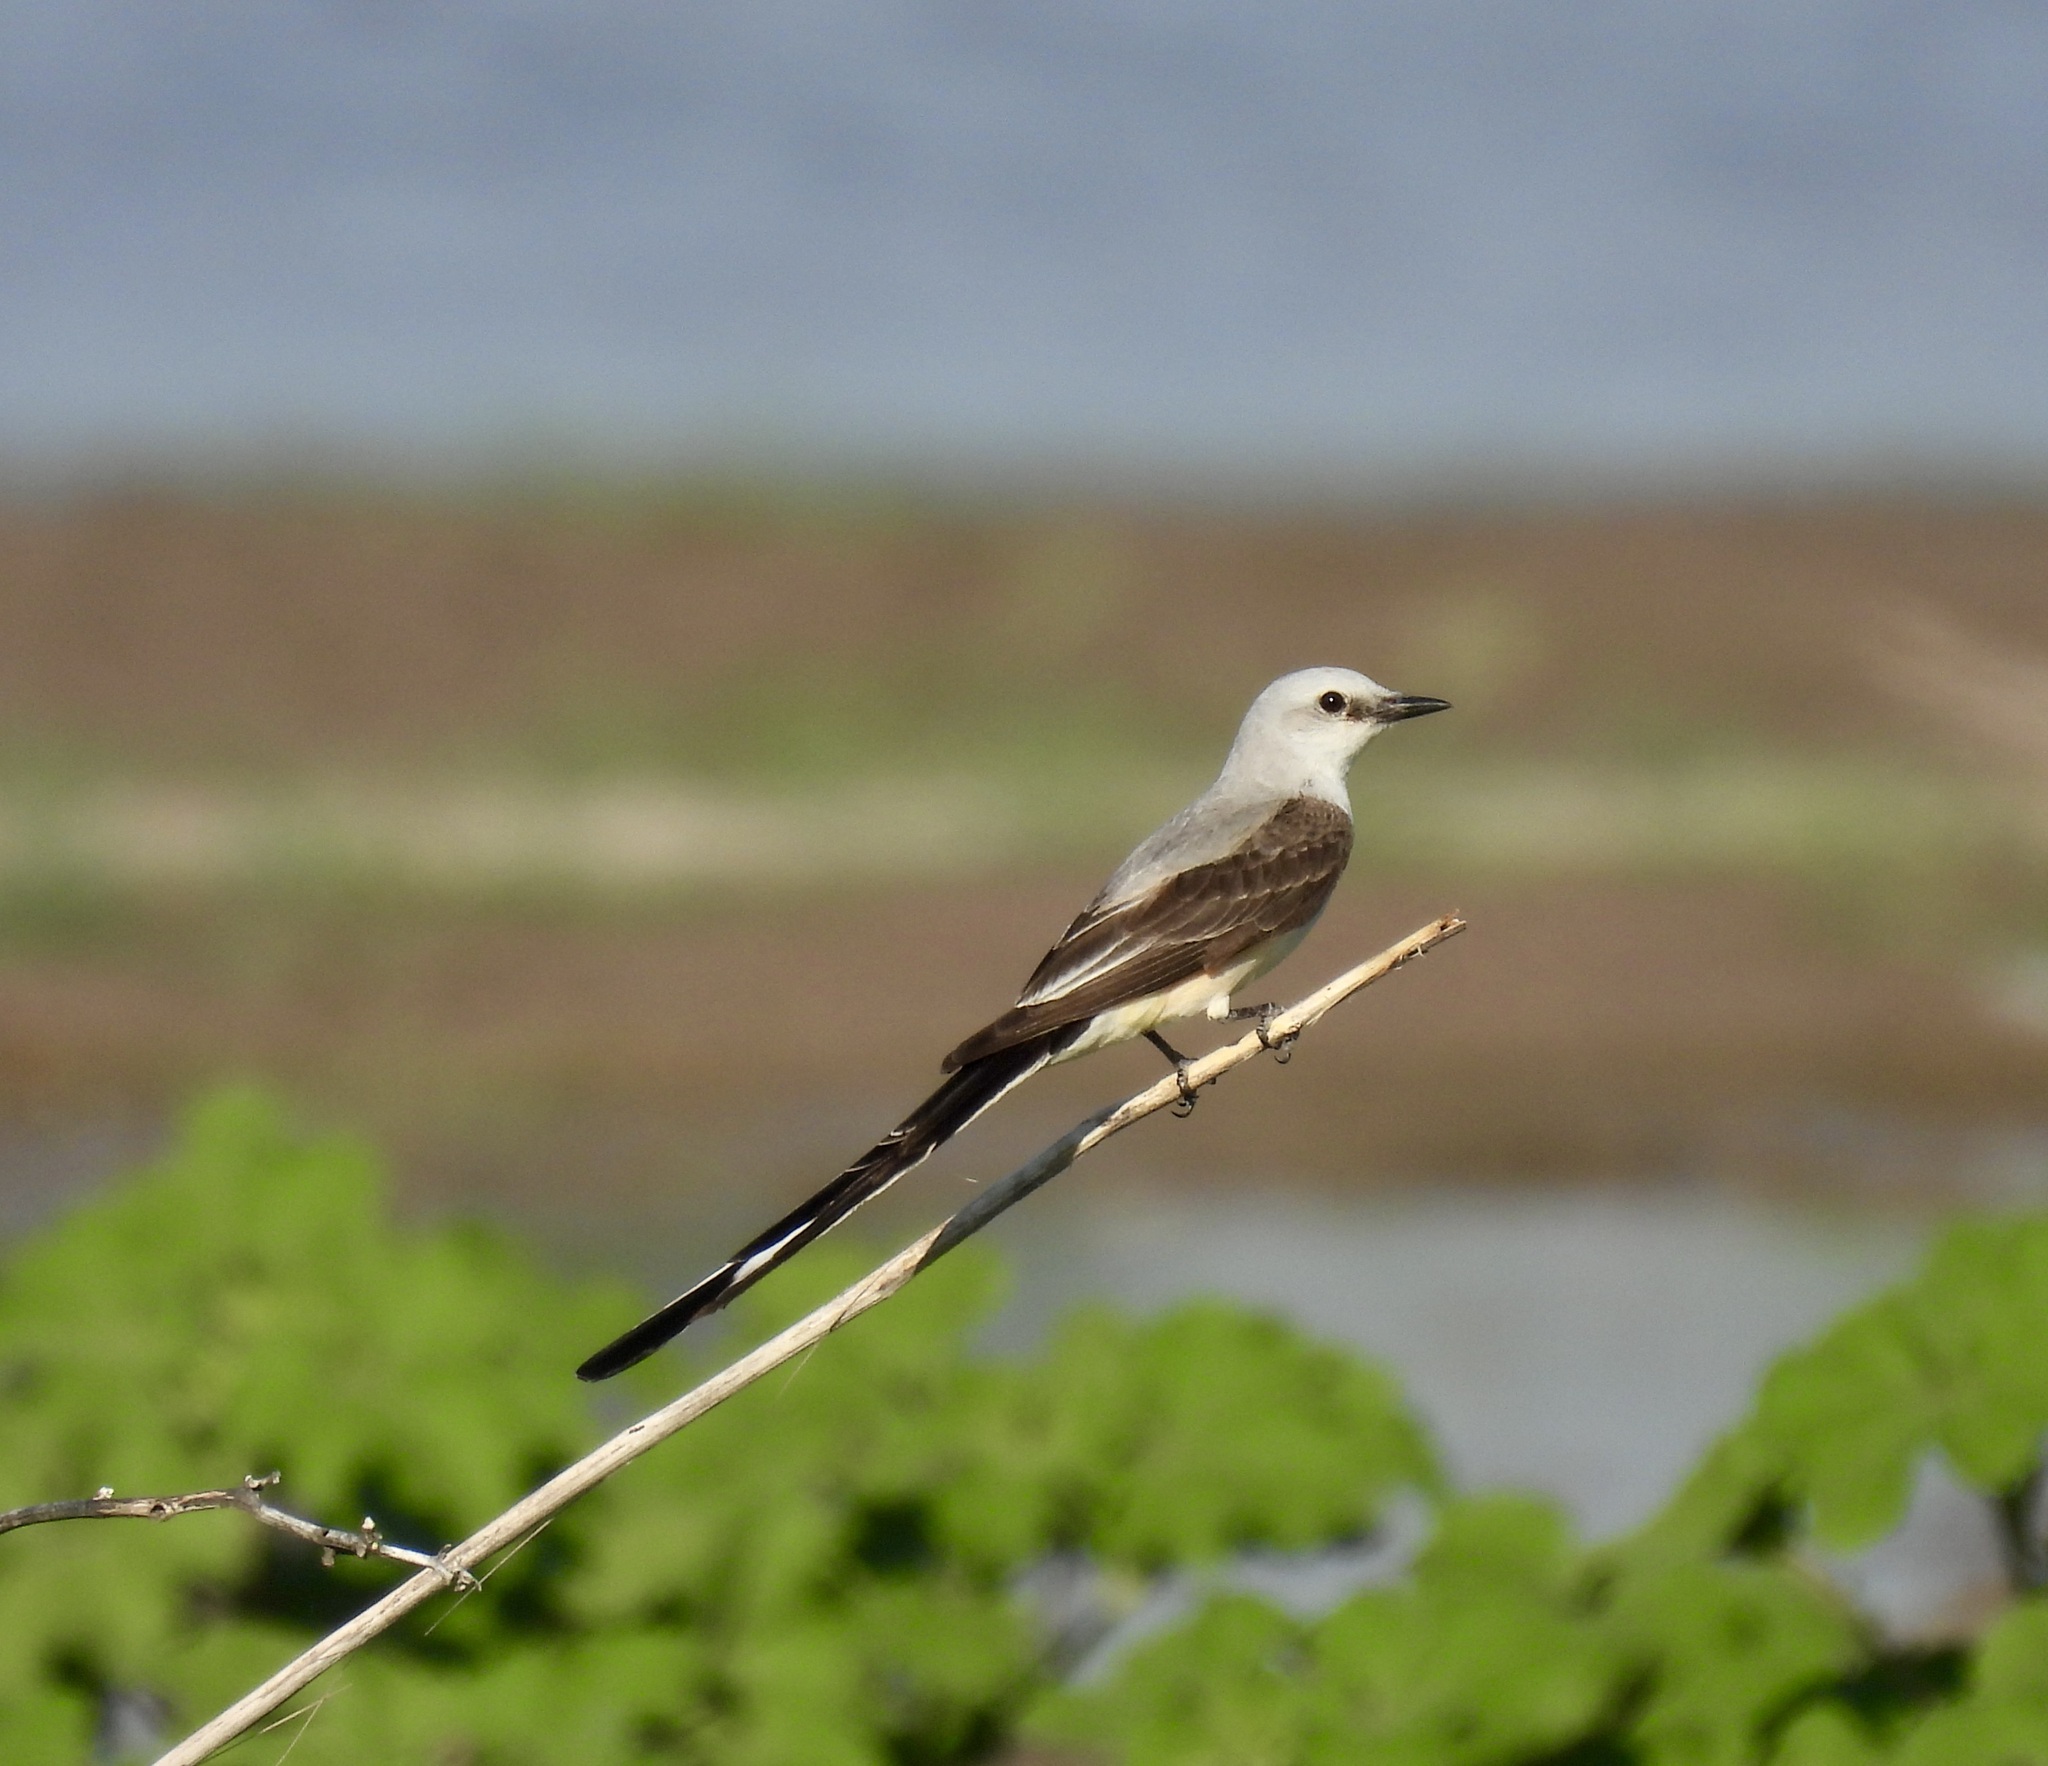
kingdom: Animalia
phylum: Chordata
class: Aves
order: Passeriformes
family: Tyrannidae
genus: Tyrannus
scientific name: Tyrannus forficatus
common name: Scissor-tailed flycatcher
